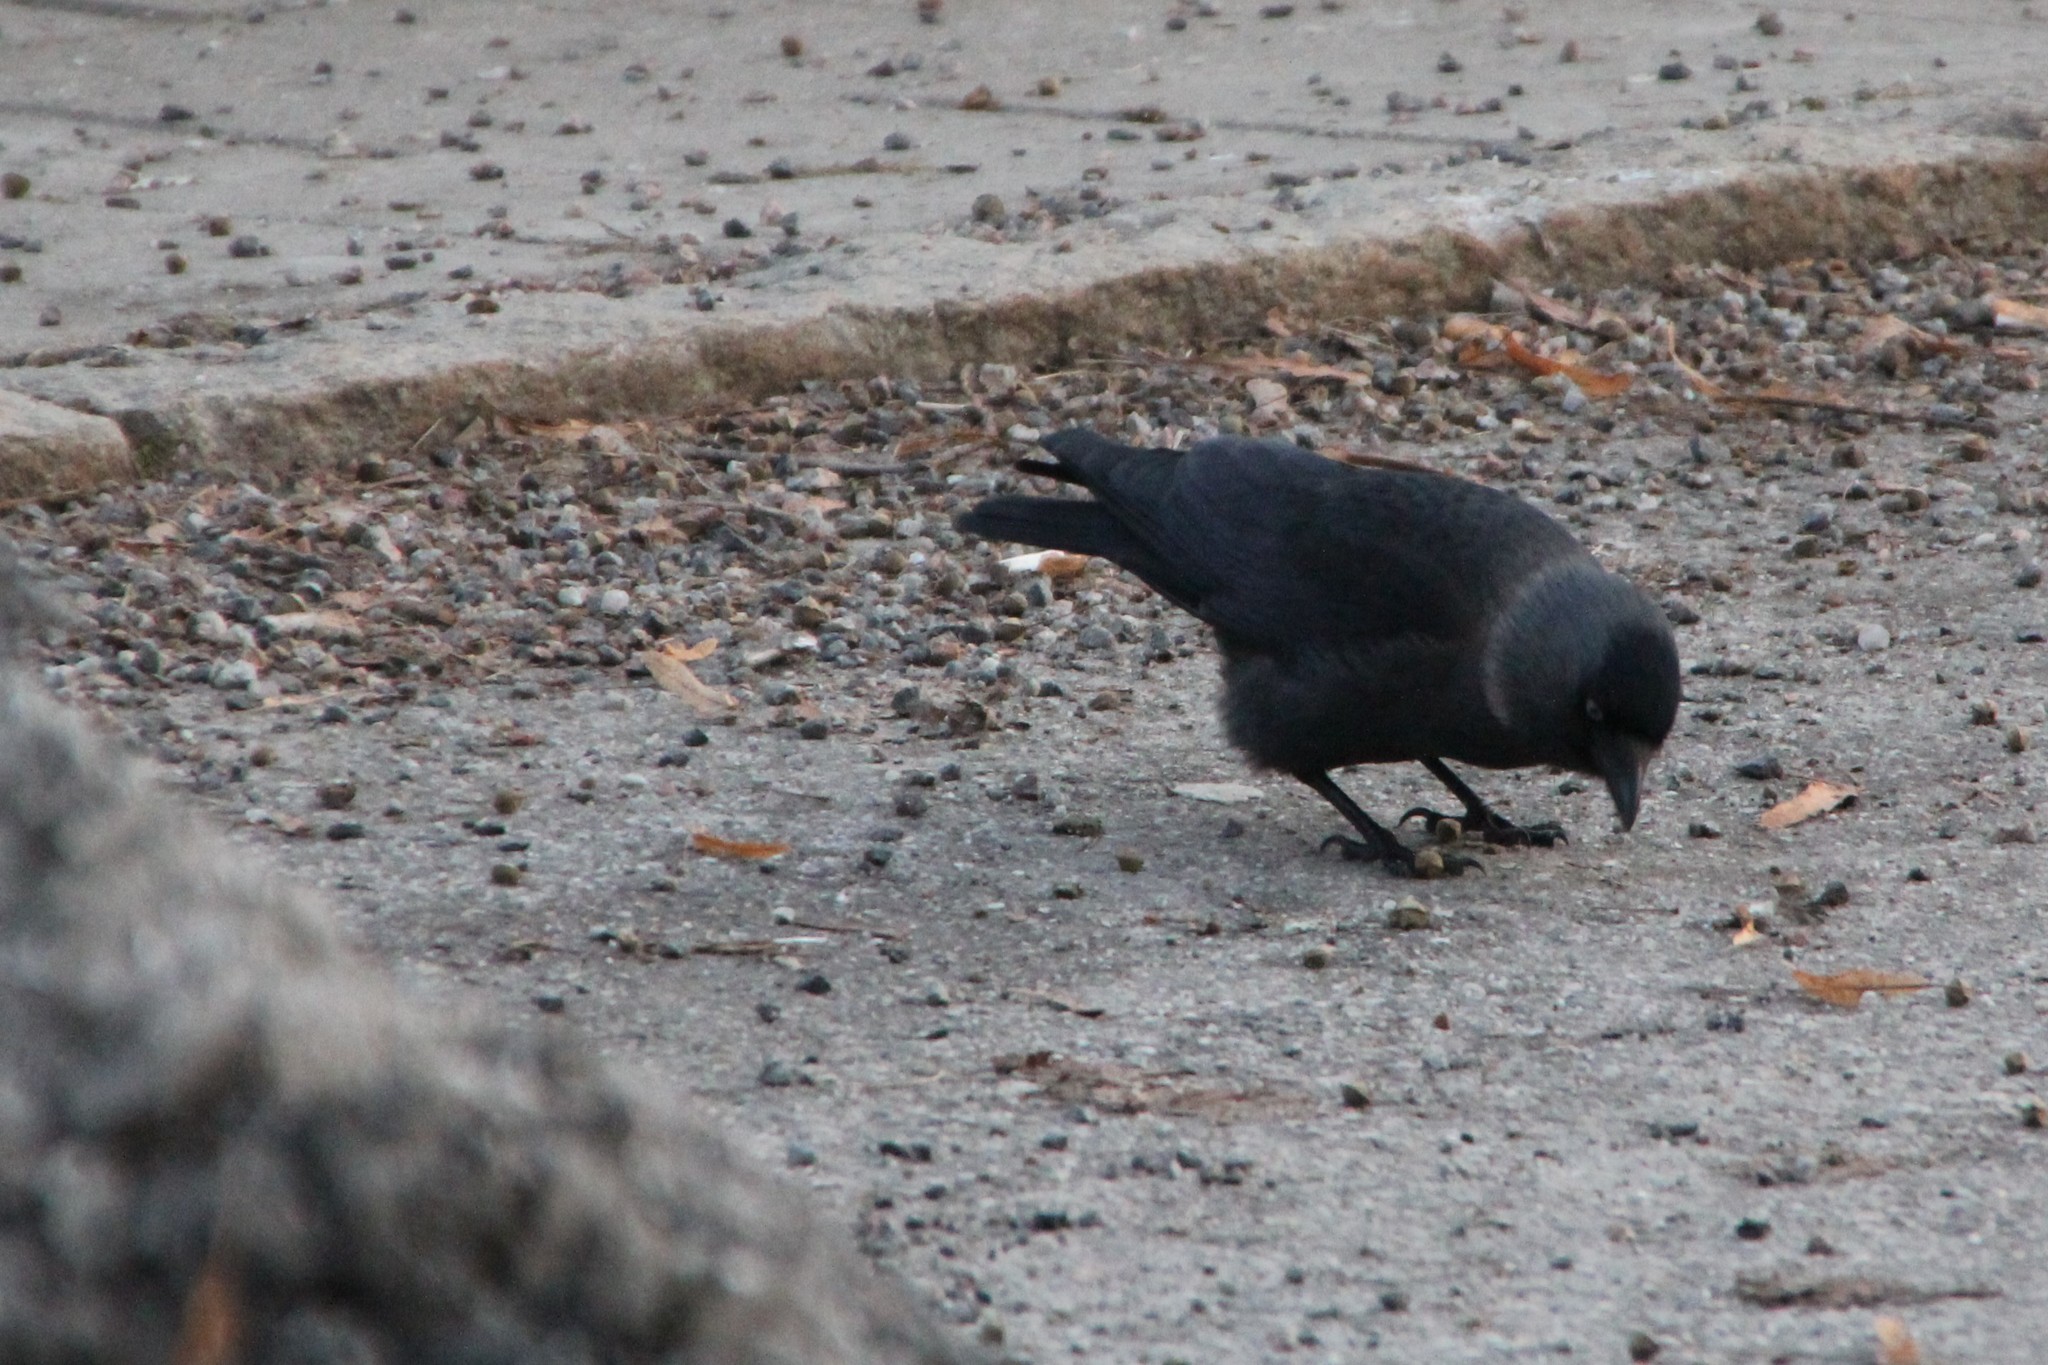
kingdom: Animalia
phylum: Chordata
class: Aves
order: Passeriformes
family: Corvidae
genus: Coloeus
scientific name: Coloeus monedula
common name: Western jackdaw
